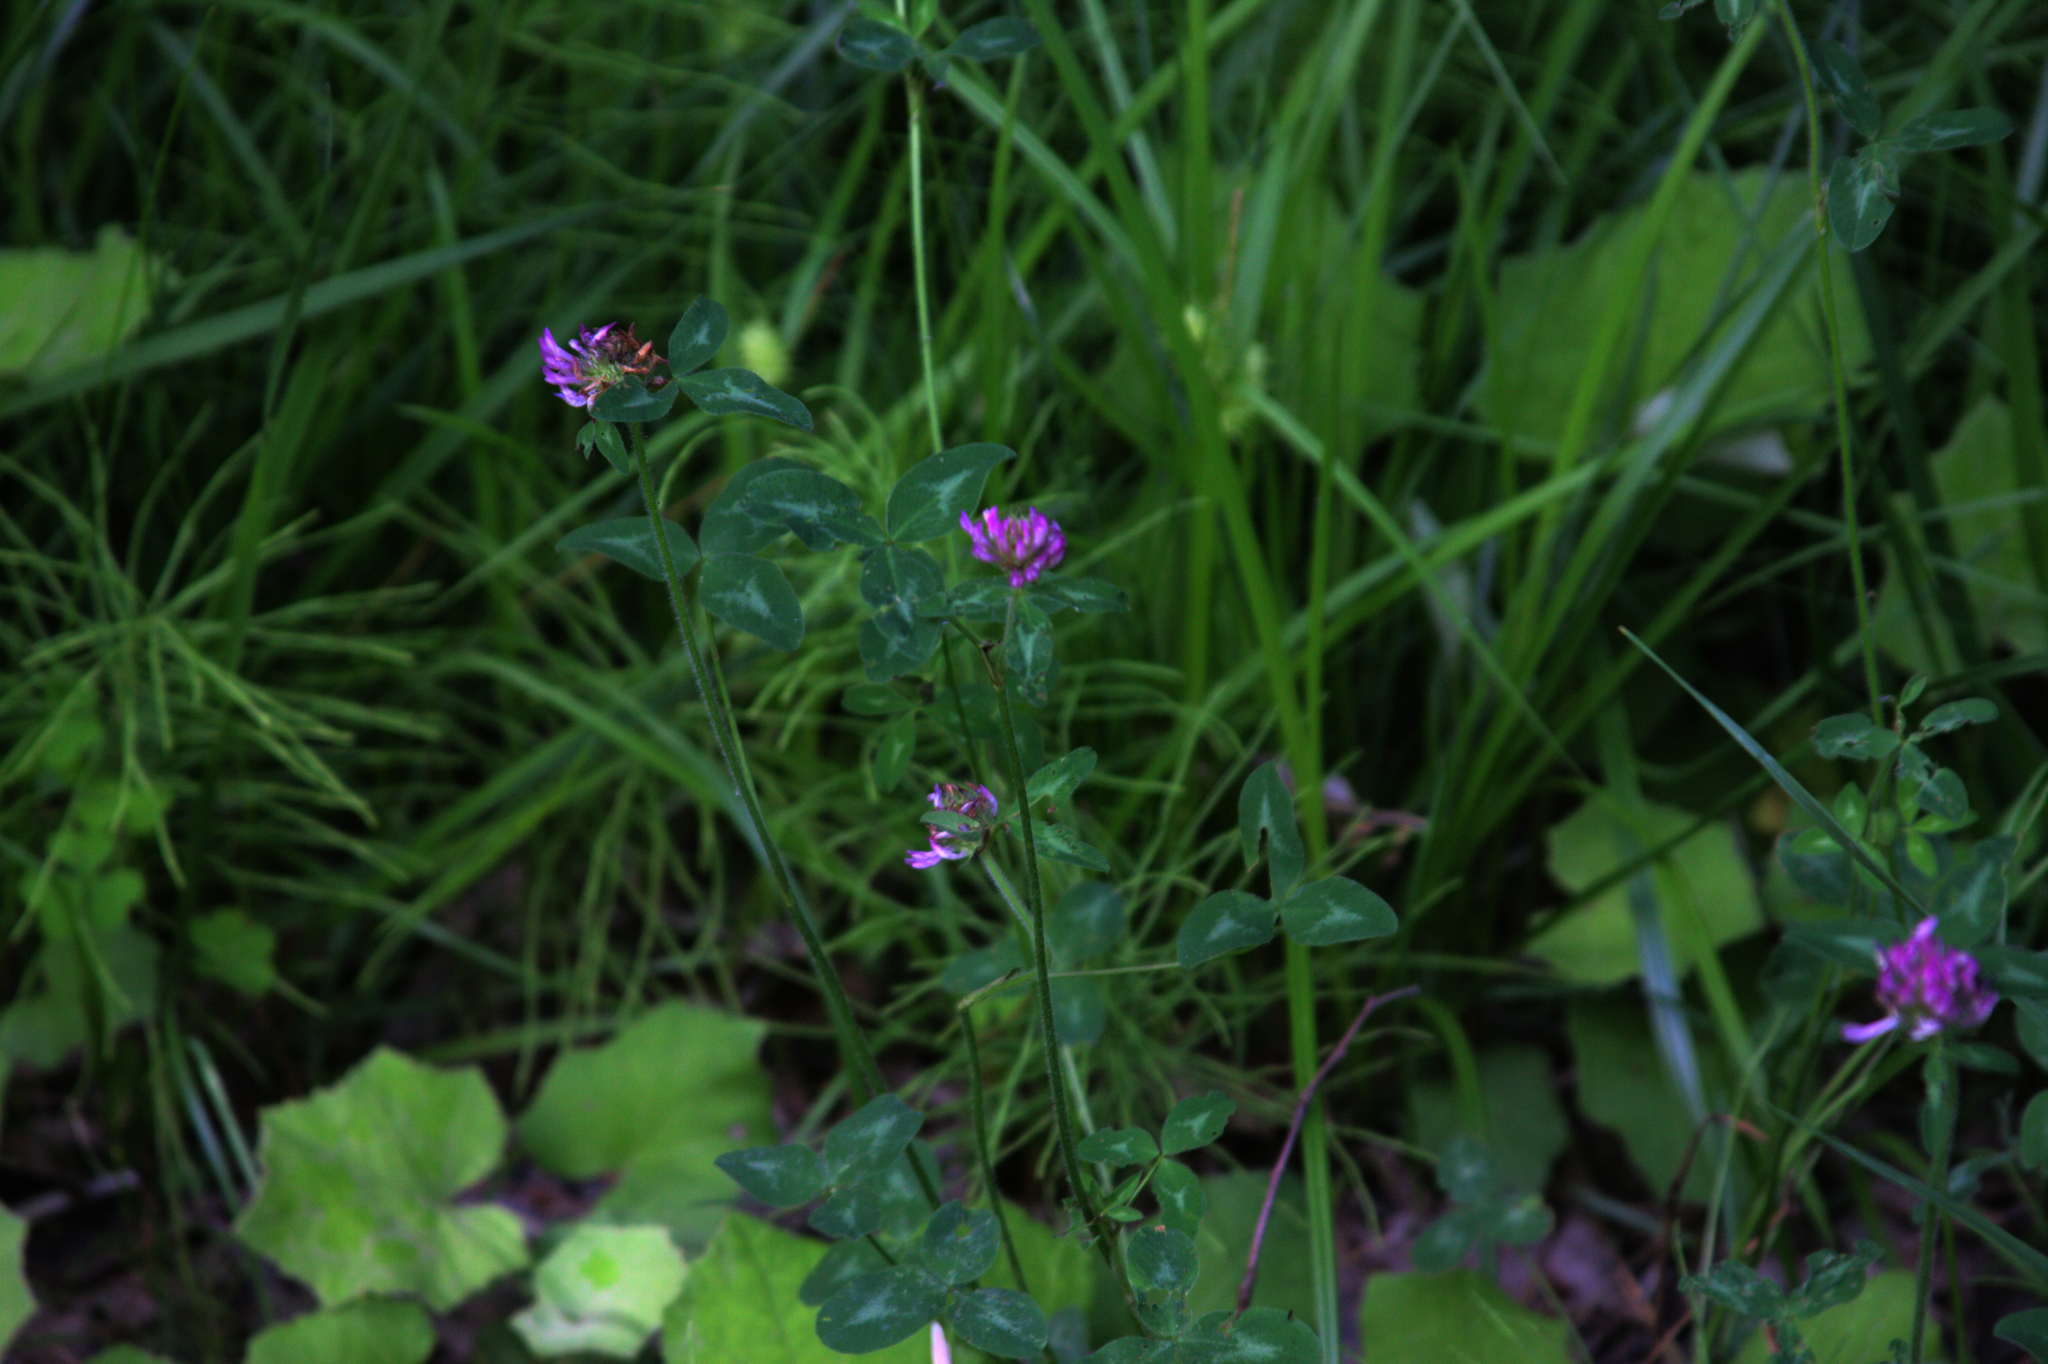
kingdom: Plantae
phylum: Tracheophyta
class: Magnoliopsida
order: Fabales
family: Fabaceae
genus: Trifolium
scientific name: Trifolium pratense
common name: Red clover
